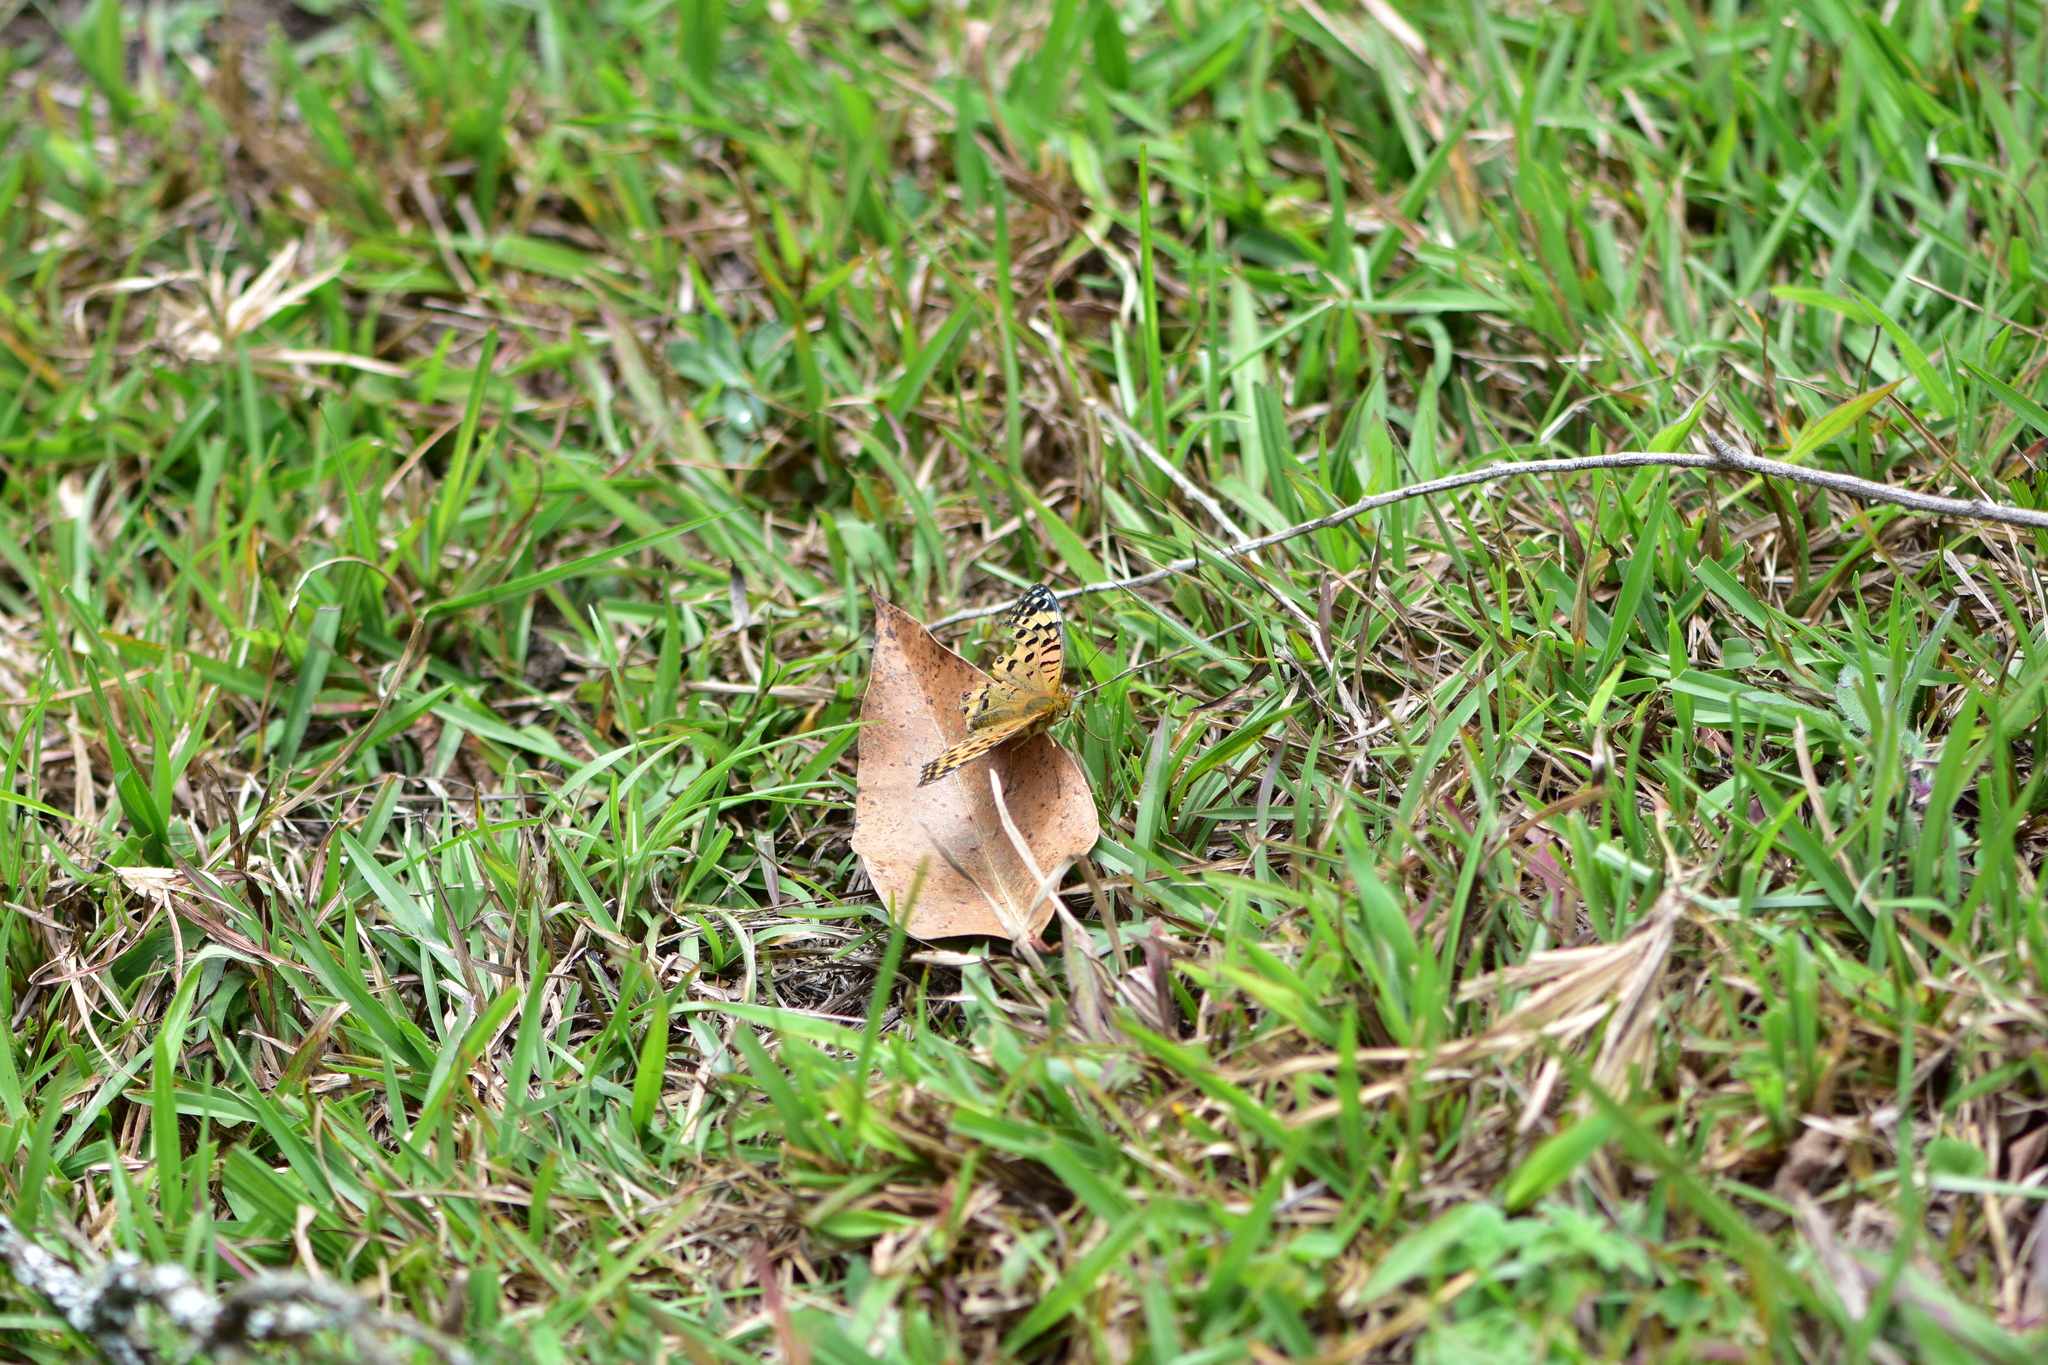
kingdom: Animalia
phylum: Arthropoda
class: Insecta
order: Lepidoptera
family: Nymphalidae
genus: Argyreus
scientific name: Argyreus hyperbius
